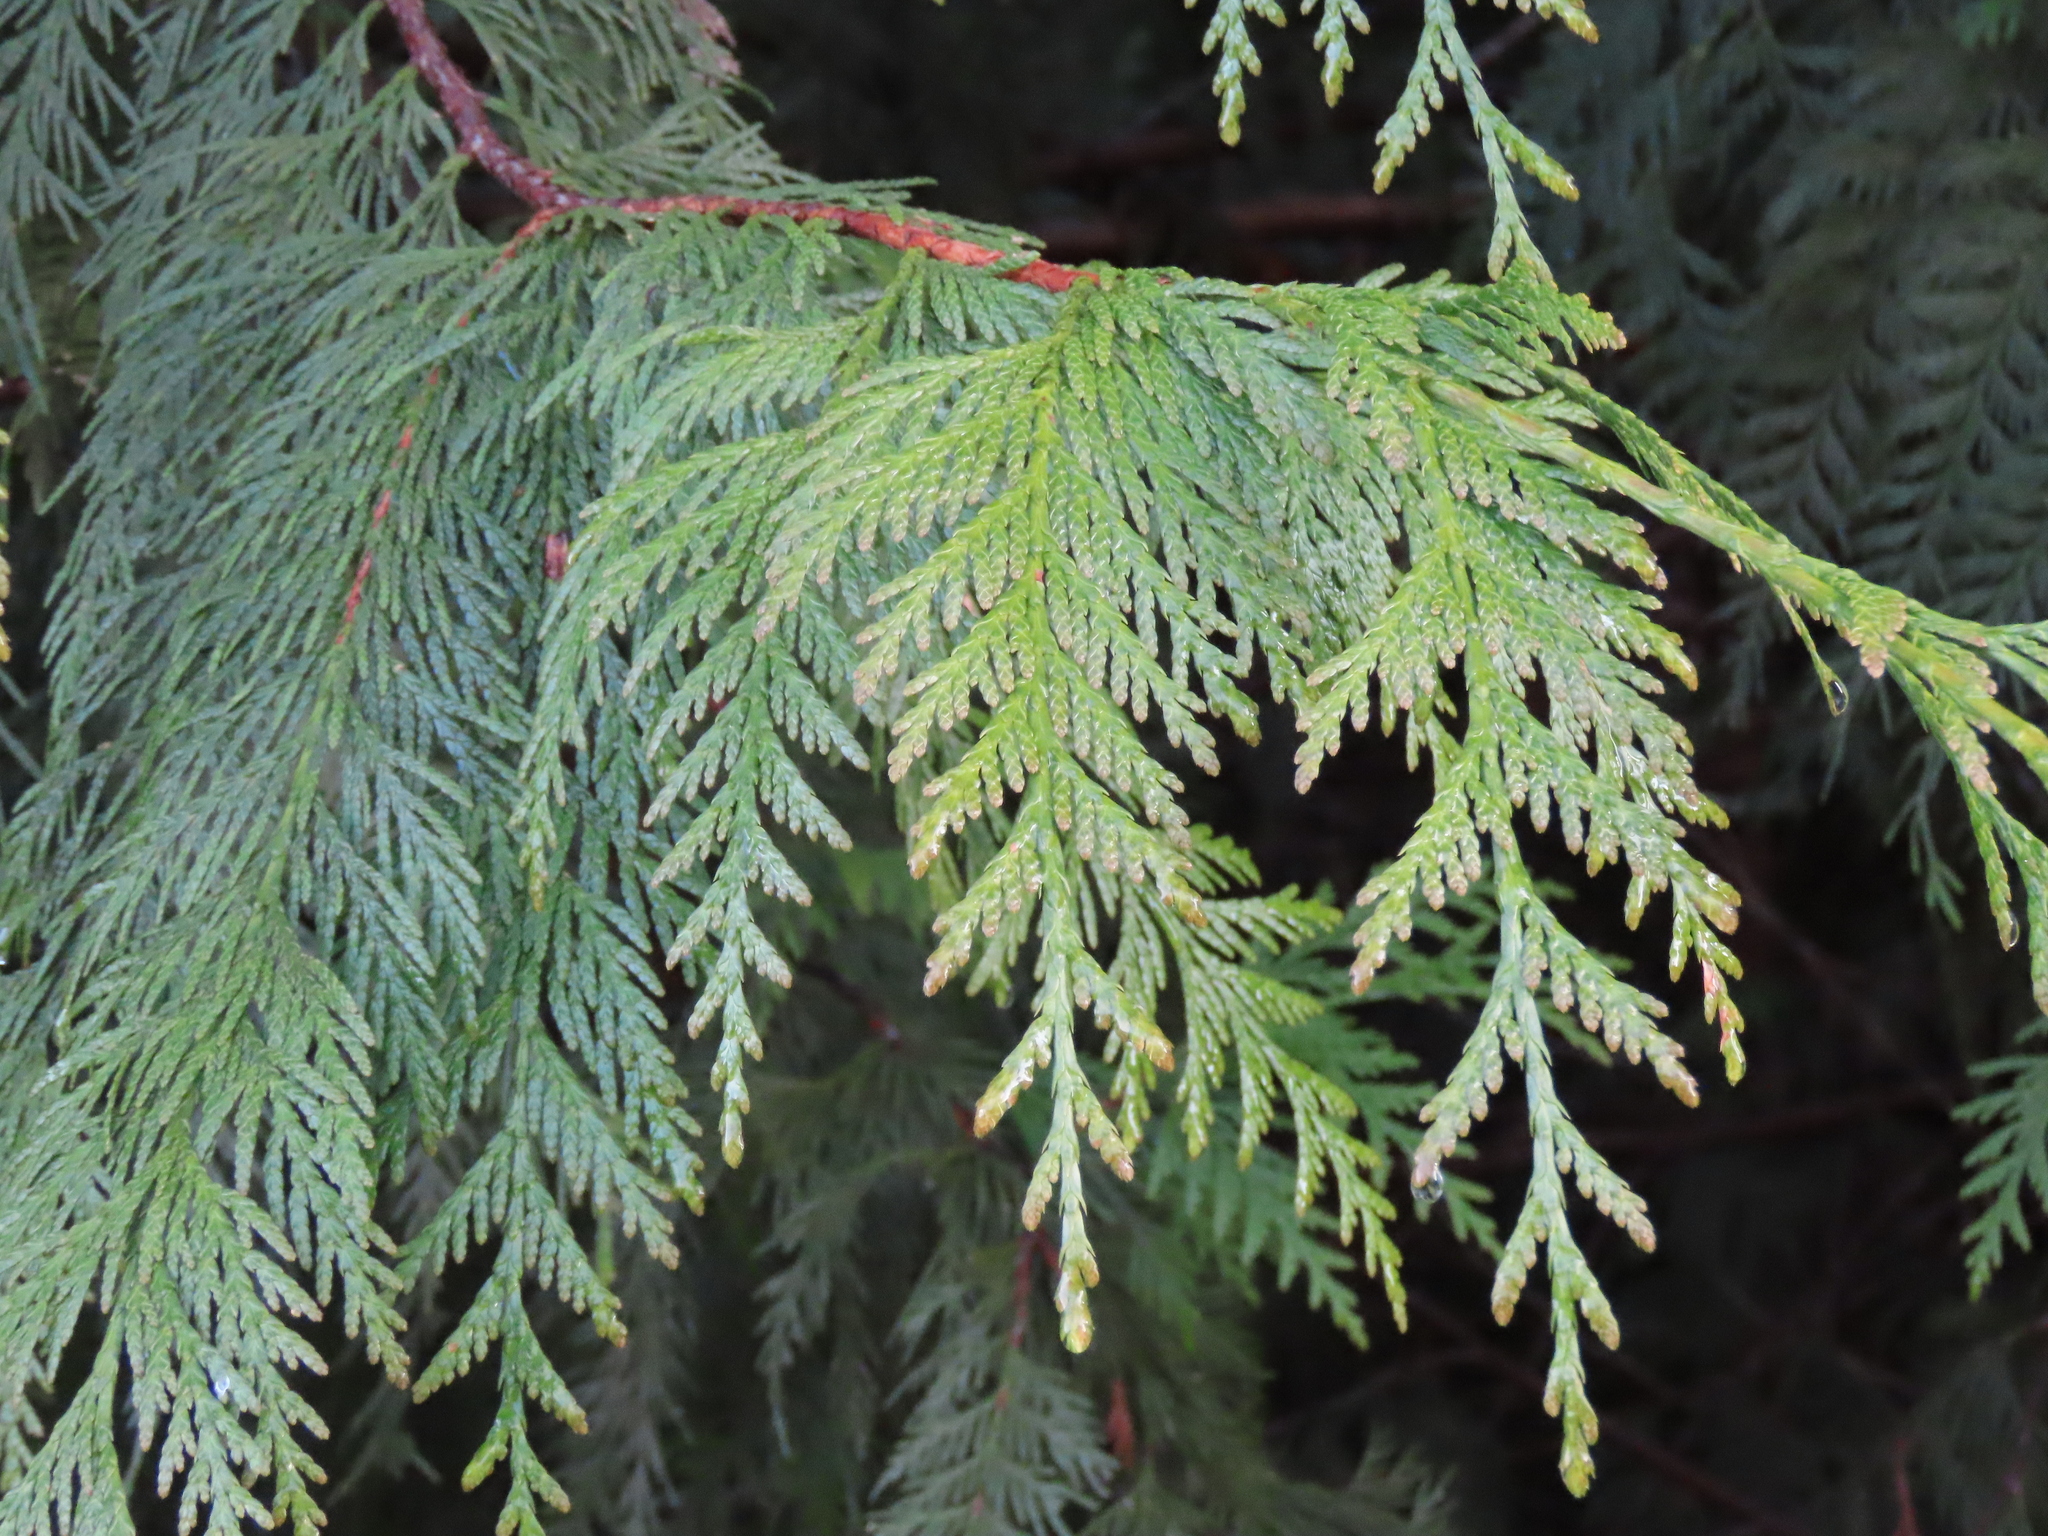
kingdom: Plantae
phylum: Tracheophyta
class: Pinopsida
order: Pinales
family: Cupressaceae
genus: Thuja
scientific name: Thuja plicata
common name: Western red-cedar
